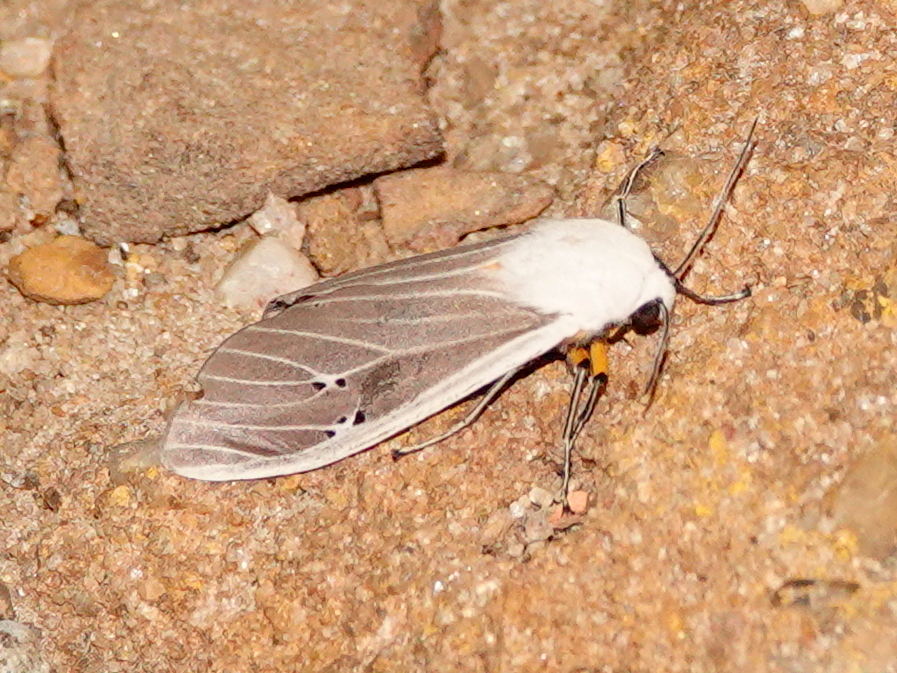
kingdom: Animalia
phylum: Arthropoda
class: Insecta
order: Lepidoptera
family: Erebidae
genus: Creatonotos
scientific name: Creatonotos transiens
